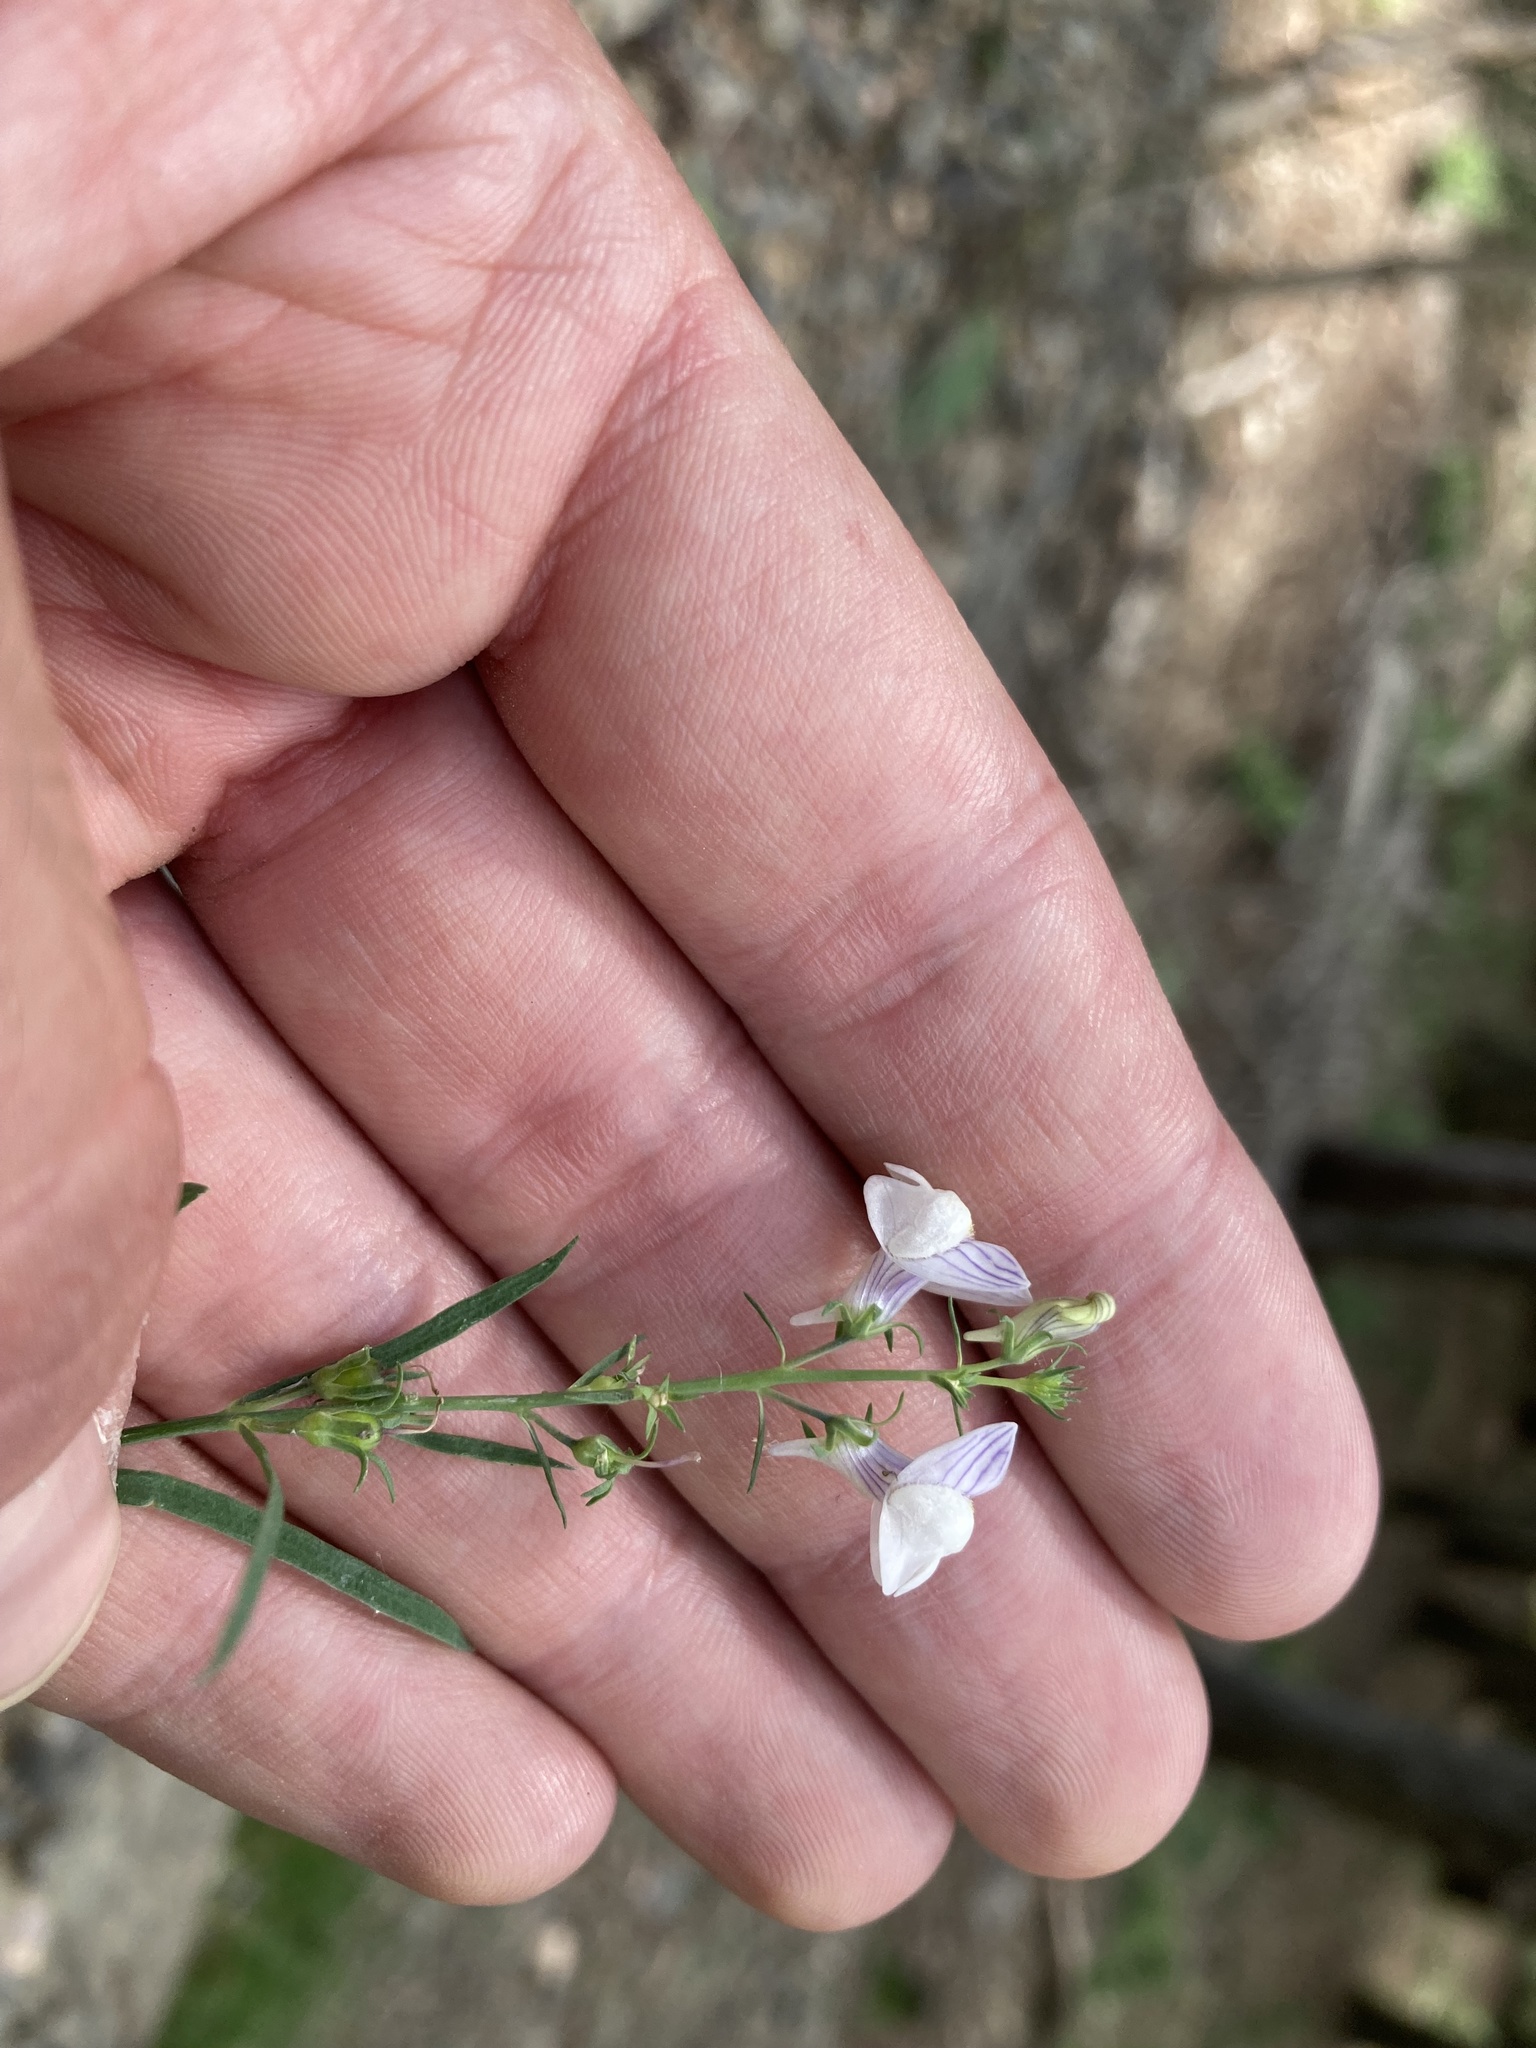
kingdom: Plantae
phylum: Tracheophyta
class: Magnoliopsida
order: Lamiales
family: Plantaginaceae
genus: Linaria
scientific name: Linaria repens
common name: Pale toadflax
